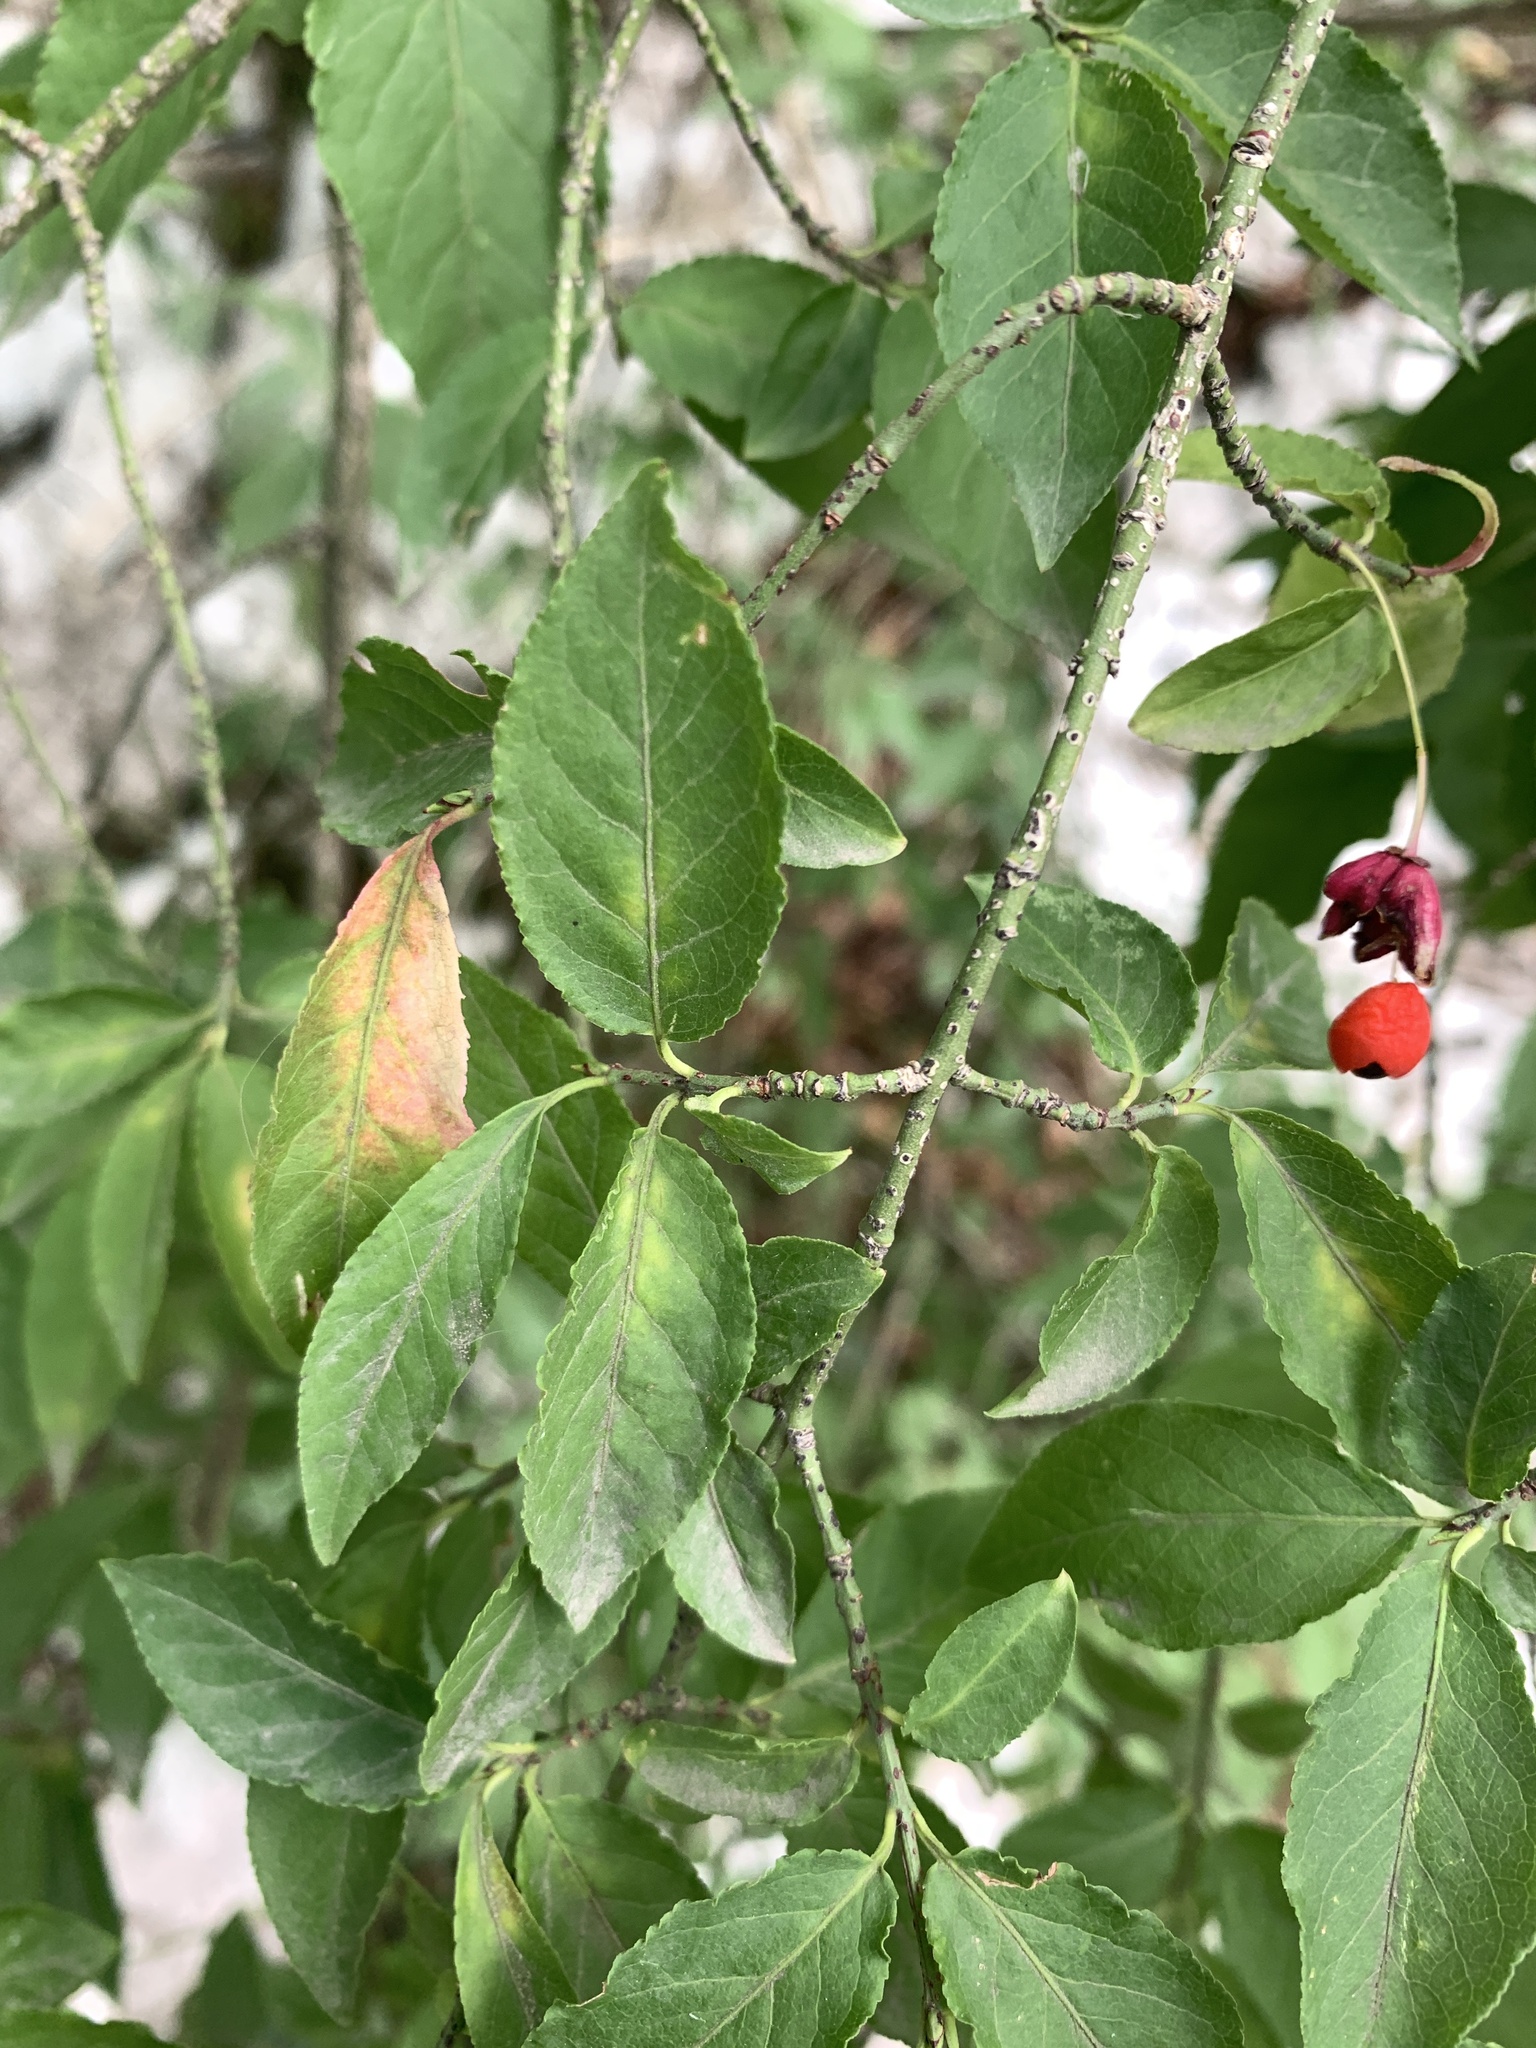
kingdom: Plantae
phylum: Tracheophyta
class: Magnoliopsida
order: Celastrales
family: Celastraceae
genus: Euonymus
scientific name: Euonymus verrucosus
